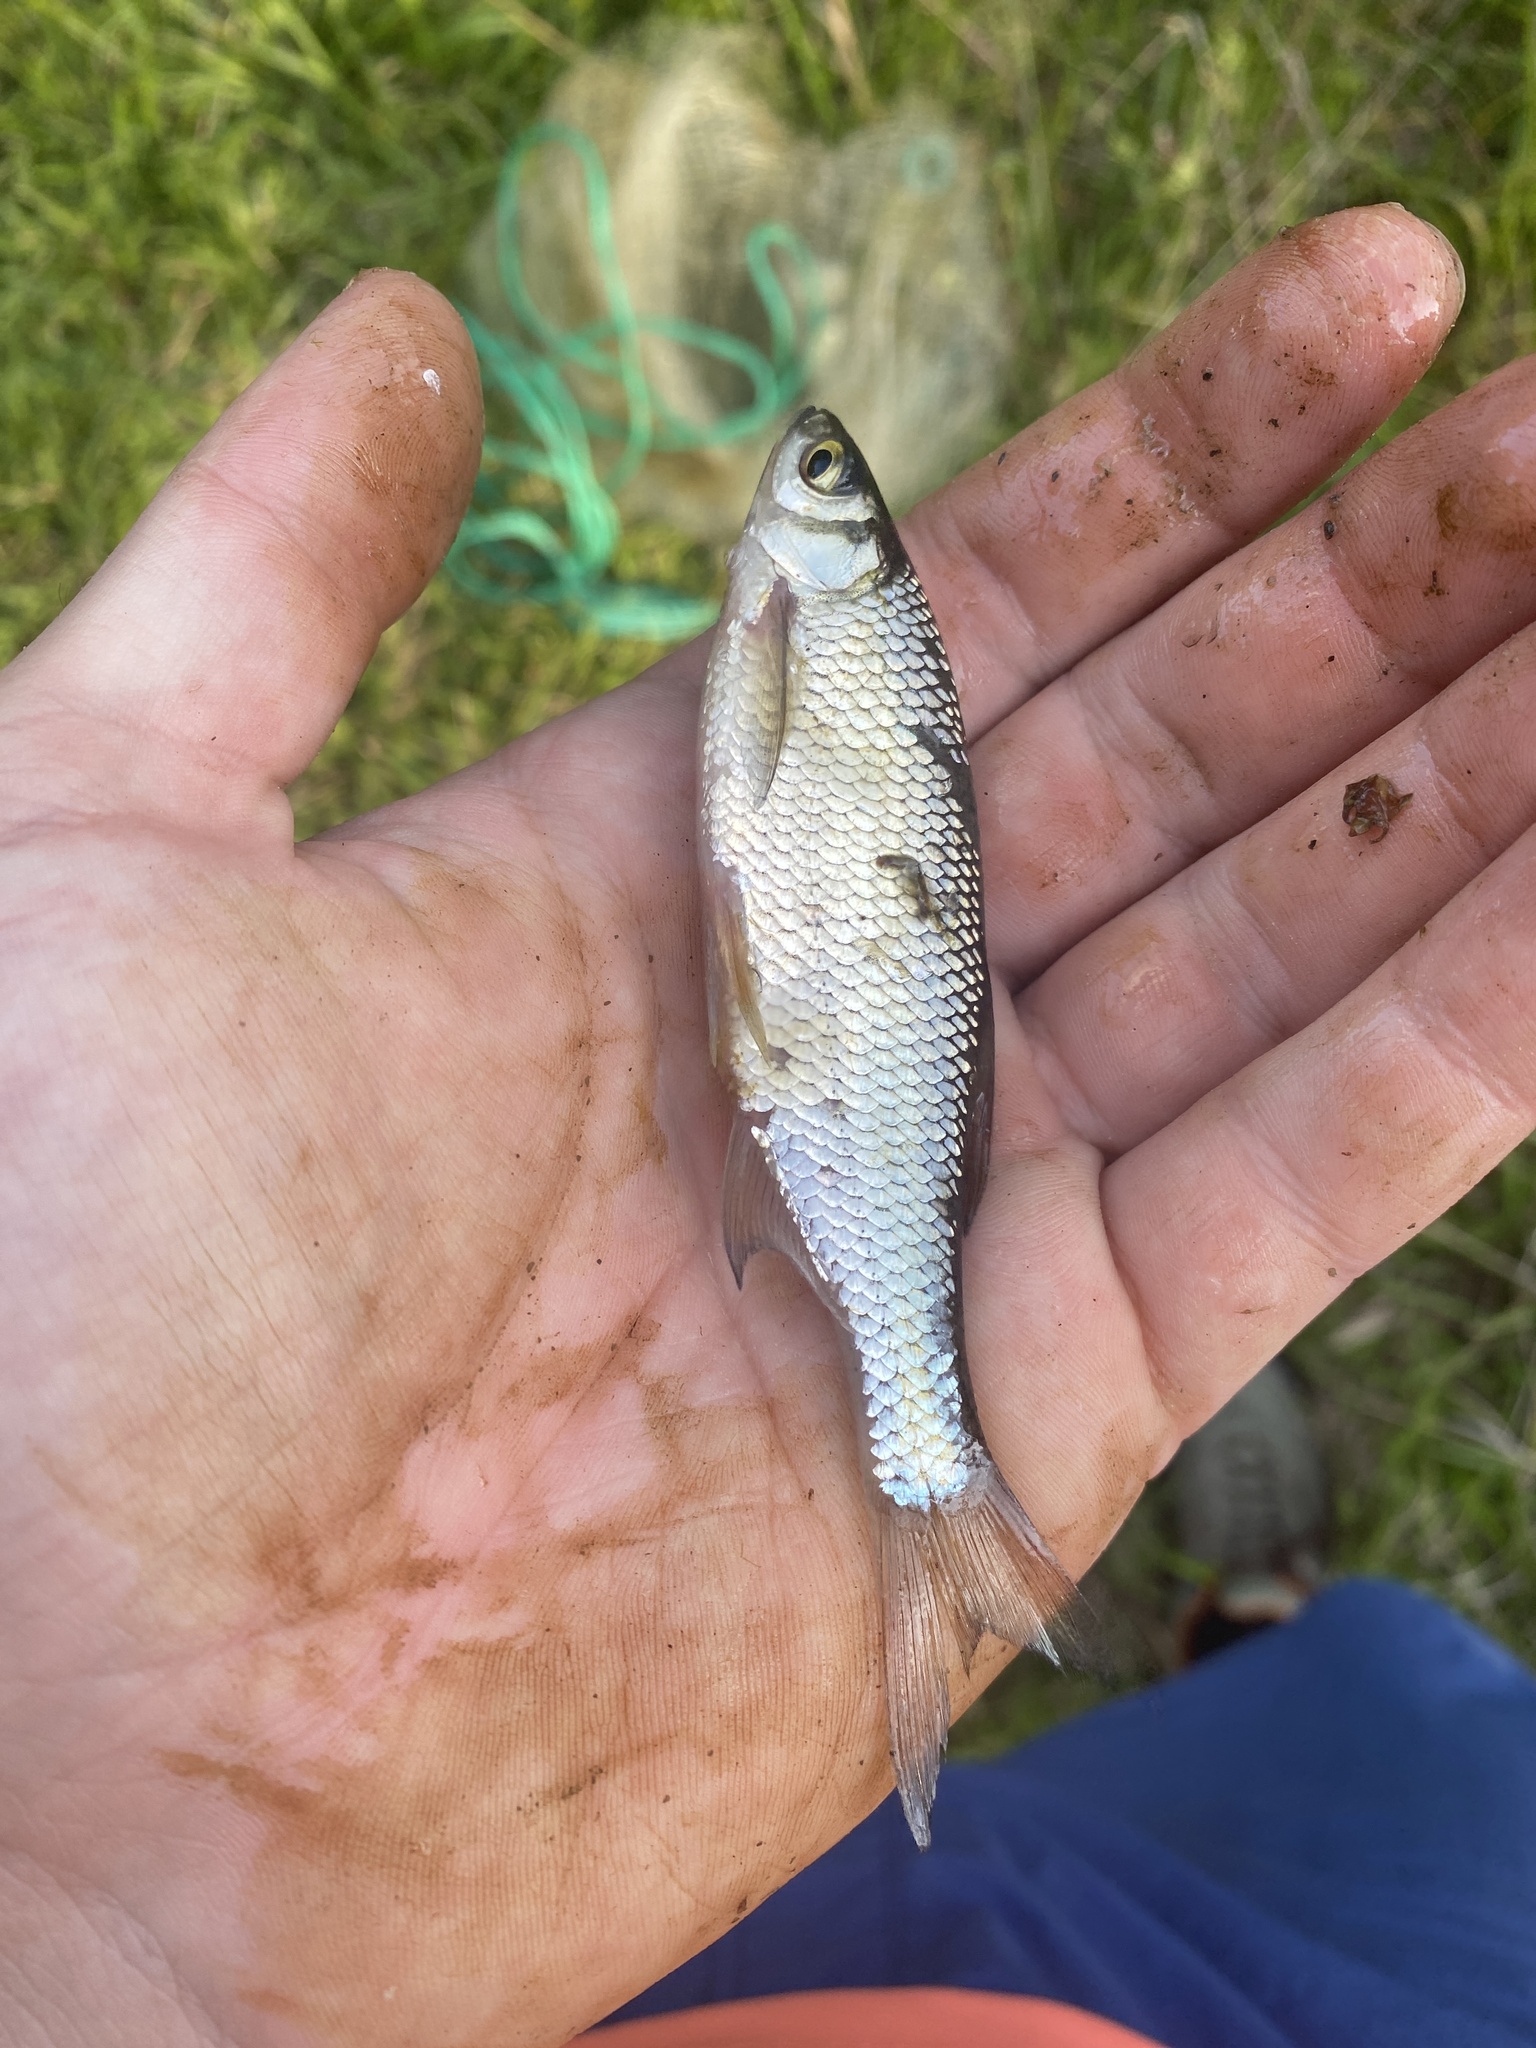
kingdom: Animalia
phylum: Chordata
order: Cypriniformes
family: Cyprinidae
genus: Notemigonus
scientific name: Notemigonus crysoleucas
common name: Golden shiner
